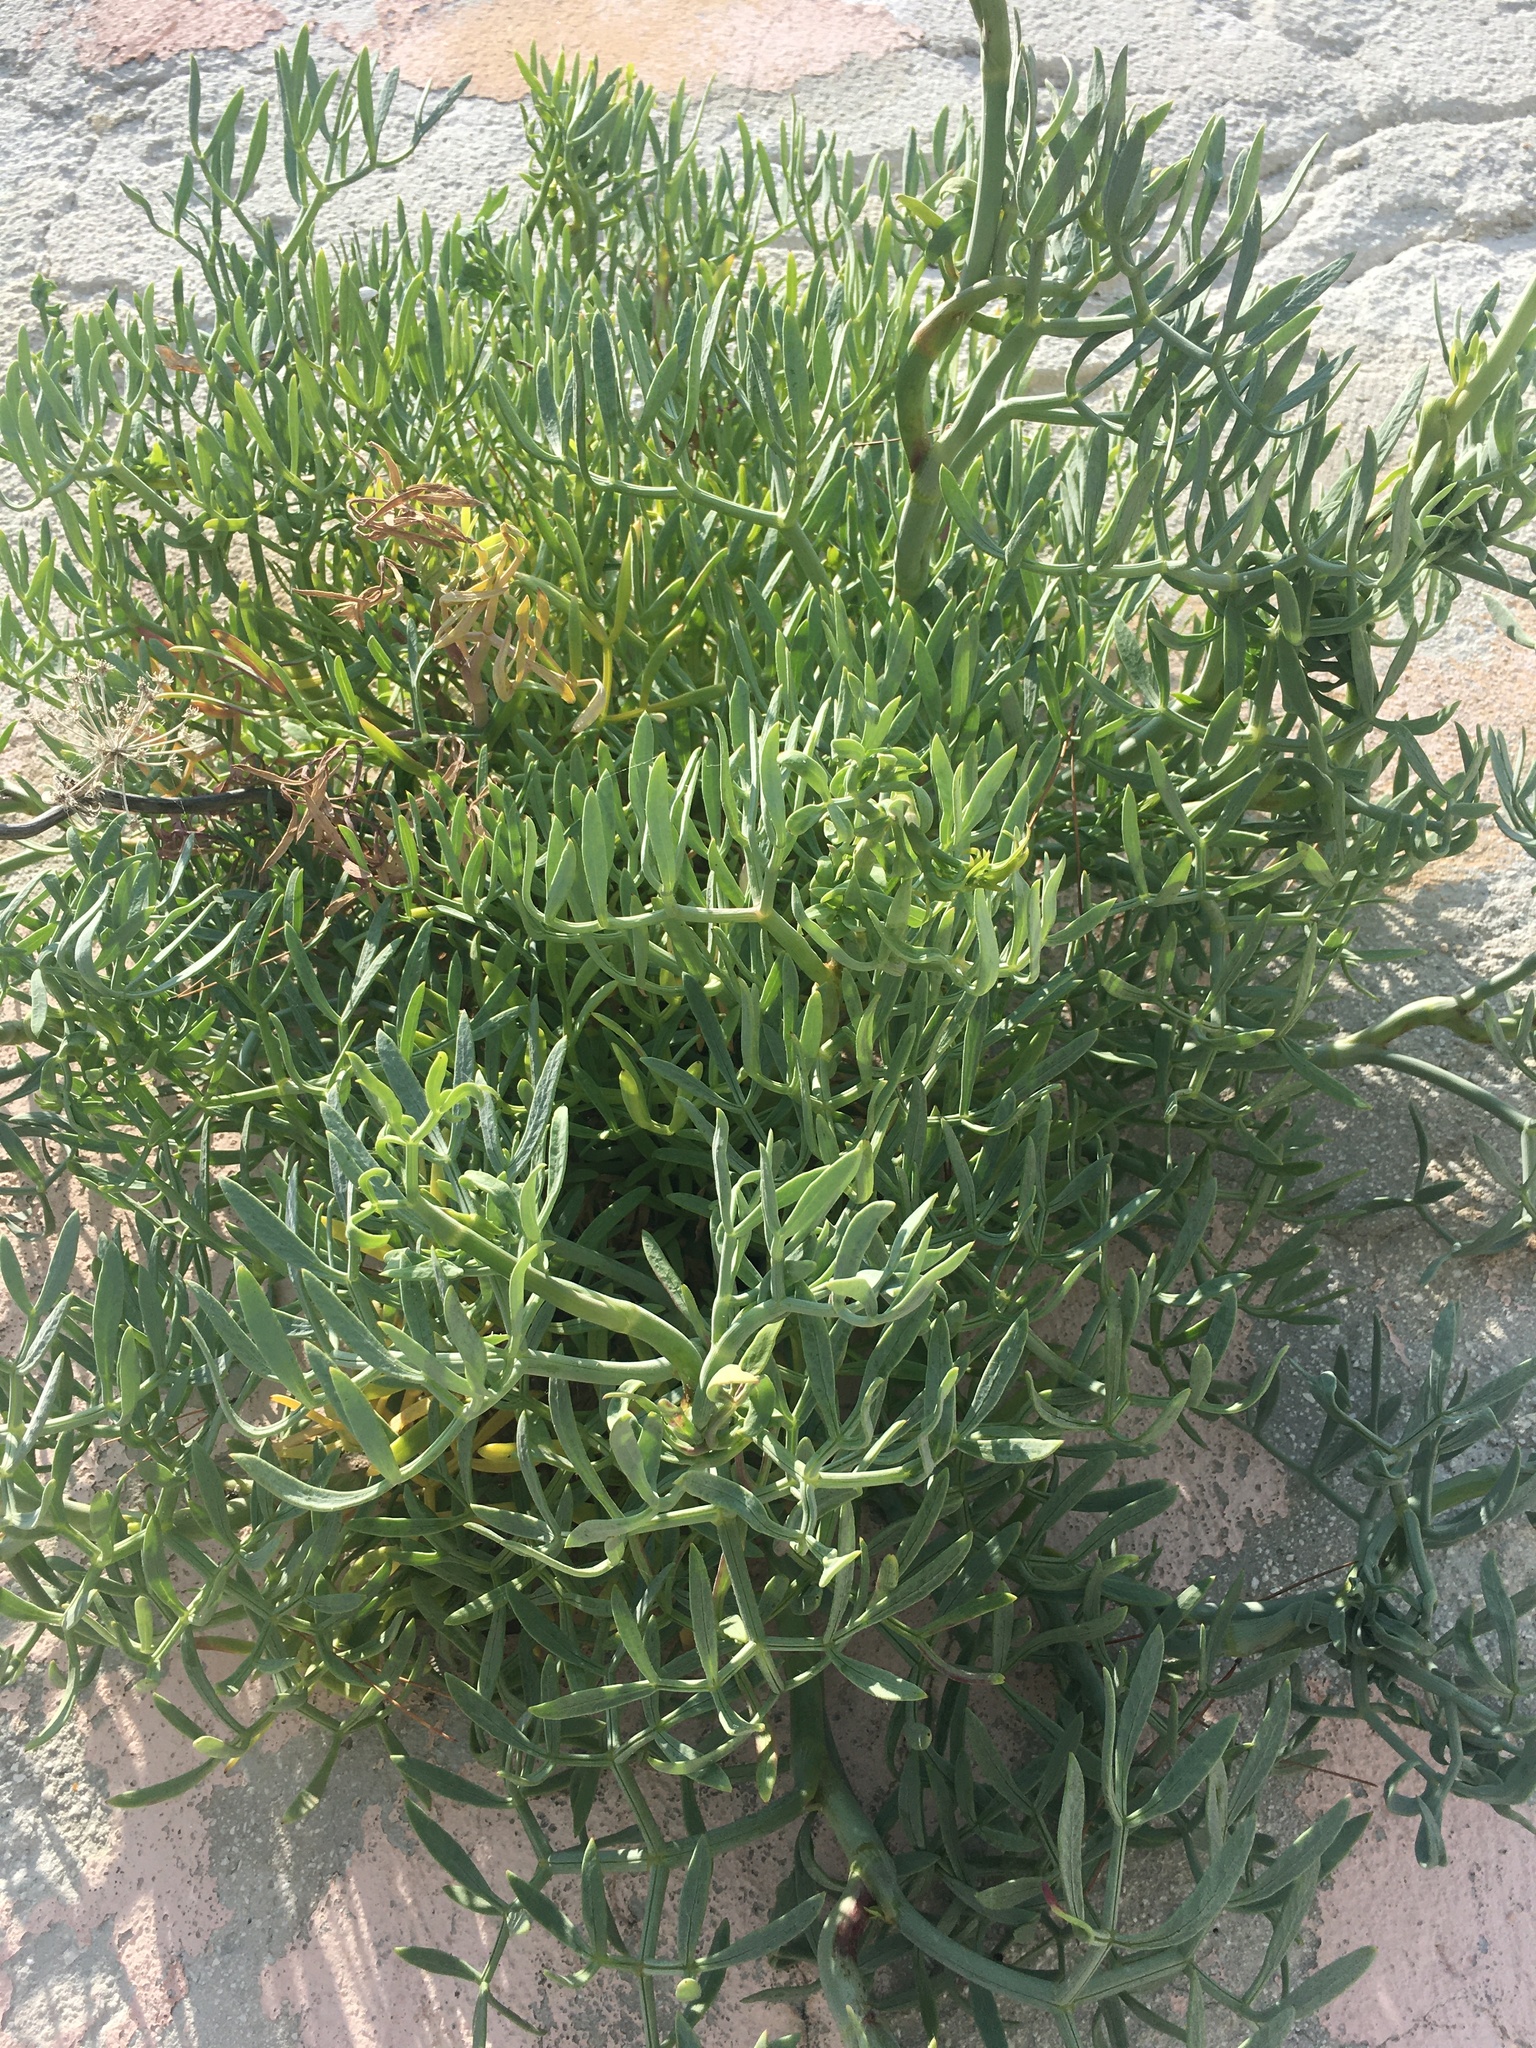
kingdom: Plantae
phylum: Tracheophyta
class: Magnoliopsida
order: Apiales
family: Apiaceae
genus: Crithmum
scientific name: Crithmum maritimum
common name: Rock samphire
